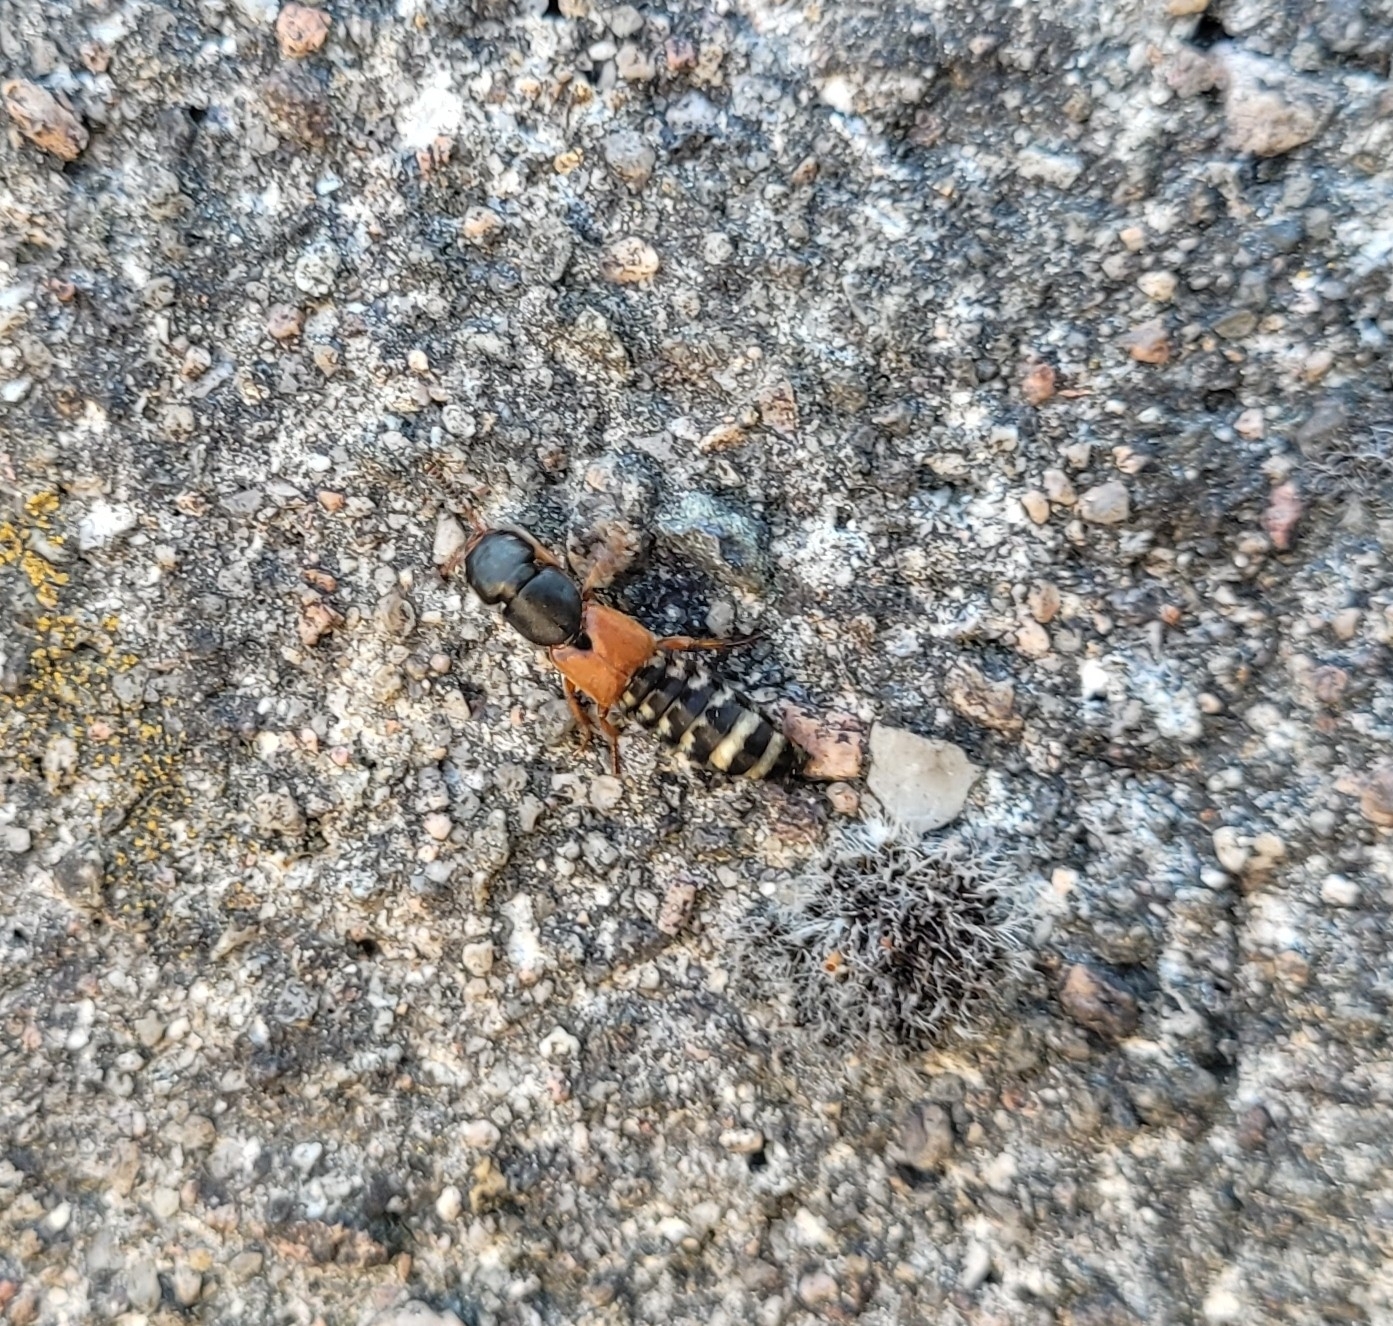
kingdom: Animalia
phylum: Arthropoda
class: Insecta
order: Coleoptera
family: Staphylinidae
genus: Platydracus
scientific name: Platydracus stercorarius
